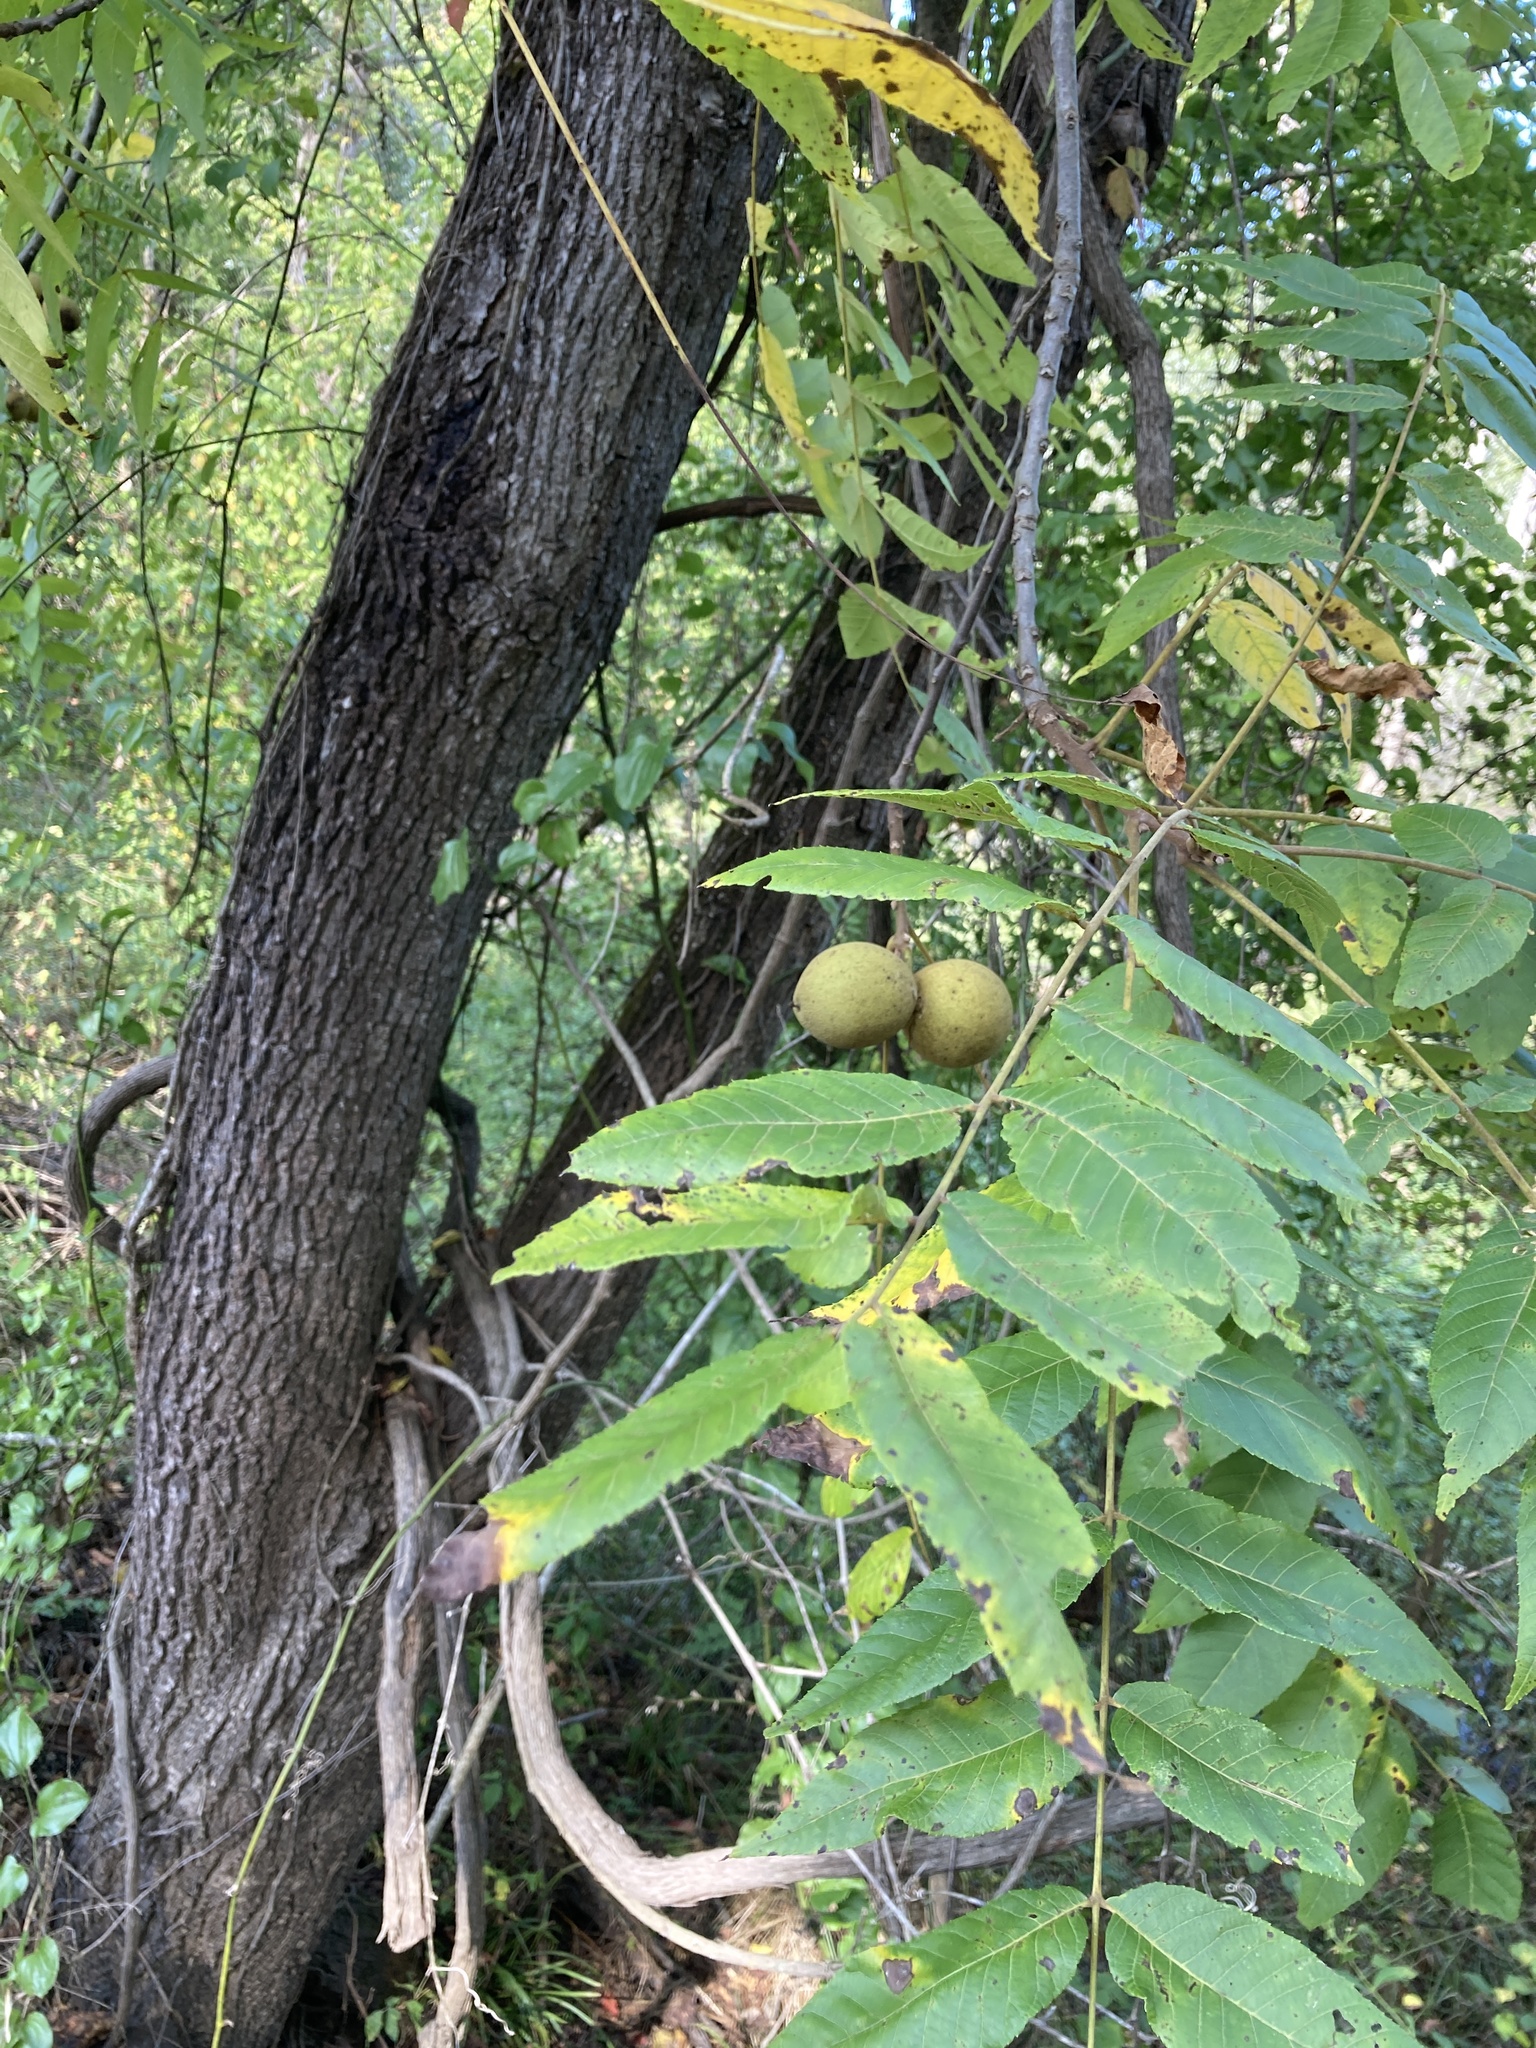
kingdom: Plantae
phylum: Tracheophyta
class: Magnoliopsida
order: Fagales
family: Juglandaceae
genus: Juglans
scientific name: Juglans nigra
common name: Black walnut
